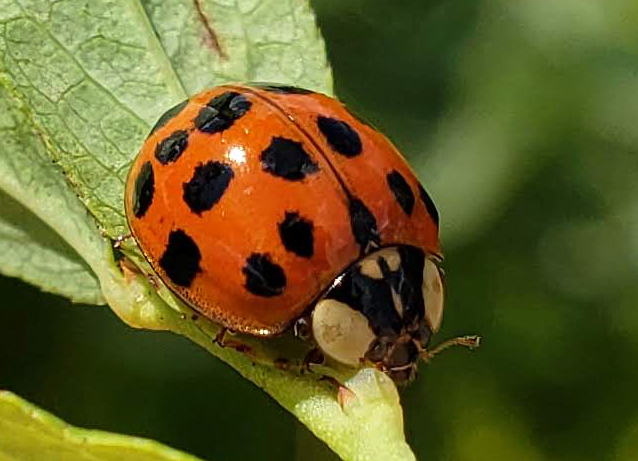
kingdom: Animalia
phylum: Arthropoda
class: Insecta
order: Coleoptera
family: Coccinellidae
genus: Harmonia
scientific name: Harmonia axyridis
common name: Harlequin ladybird
